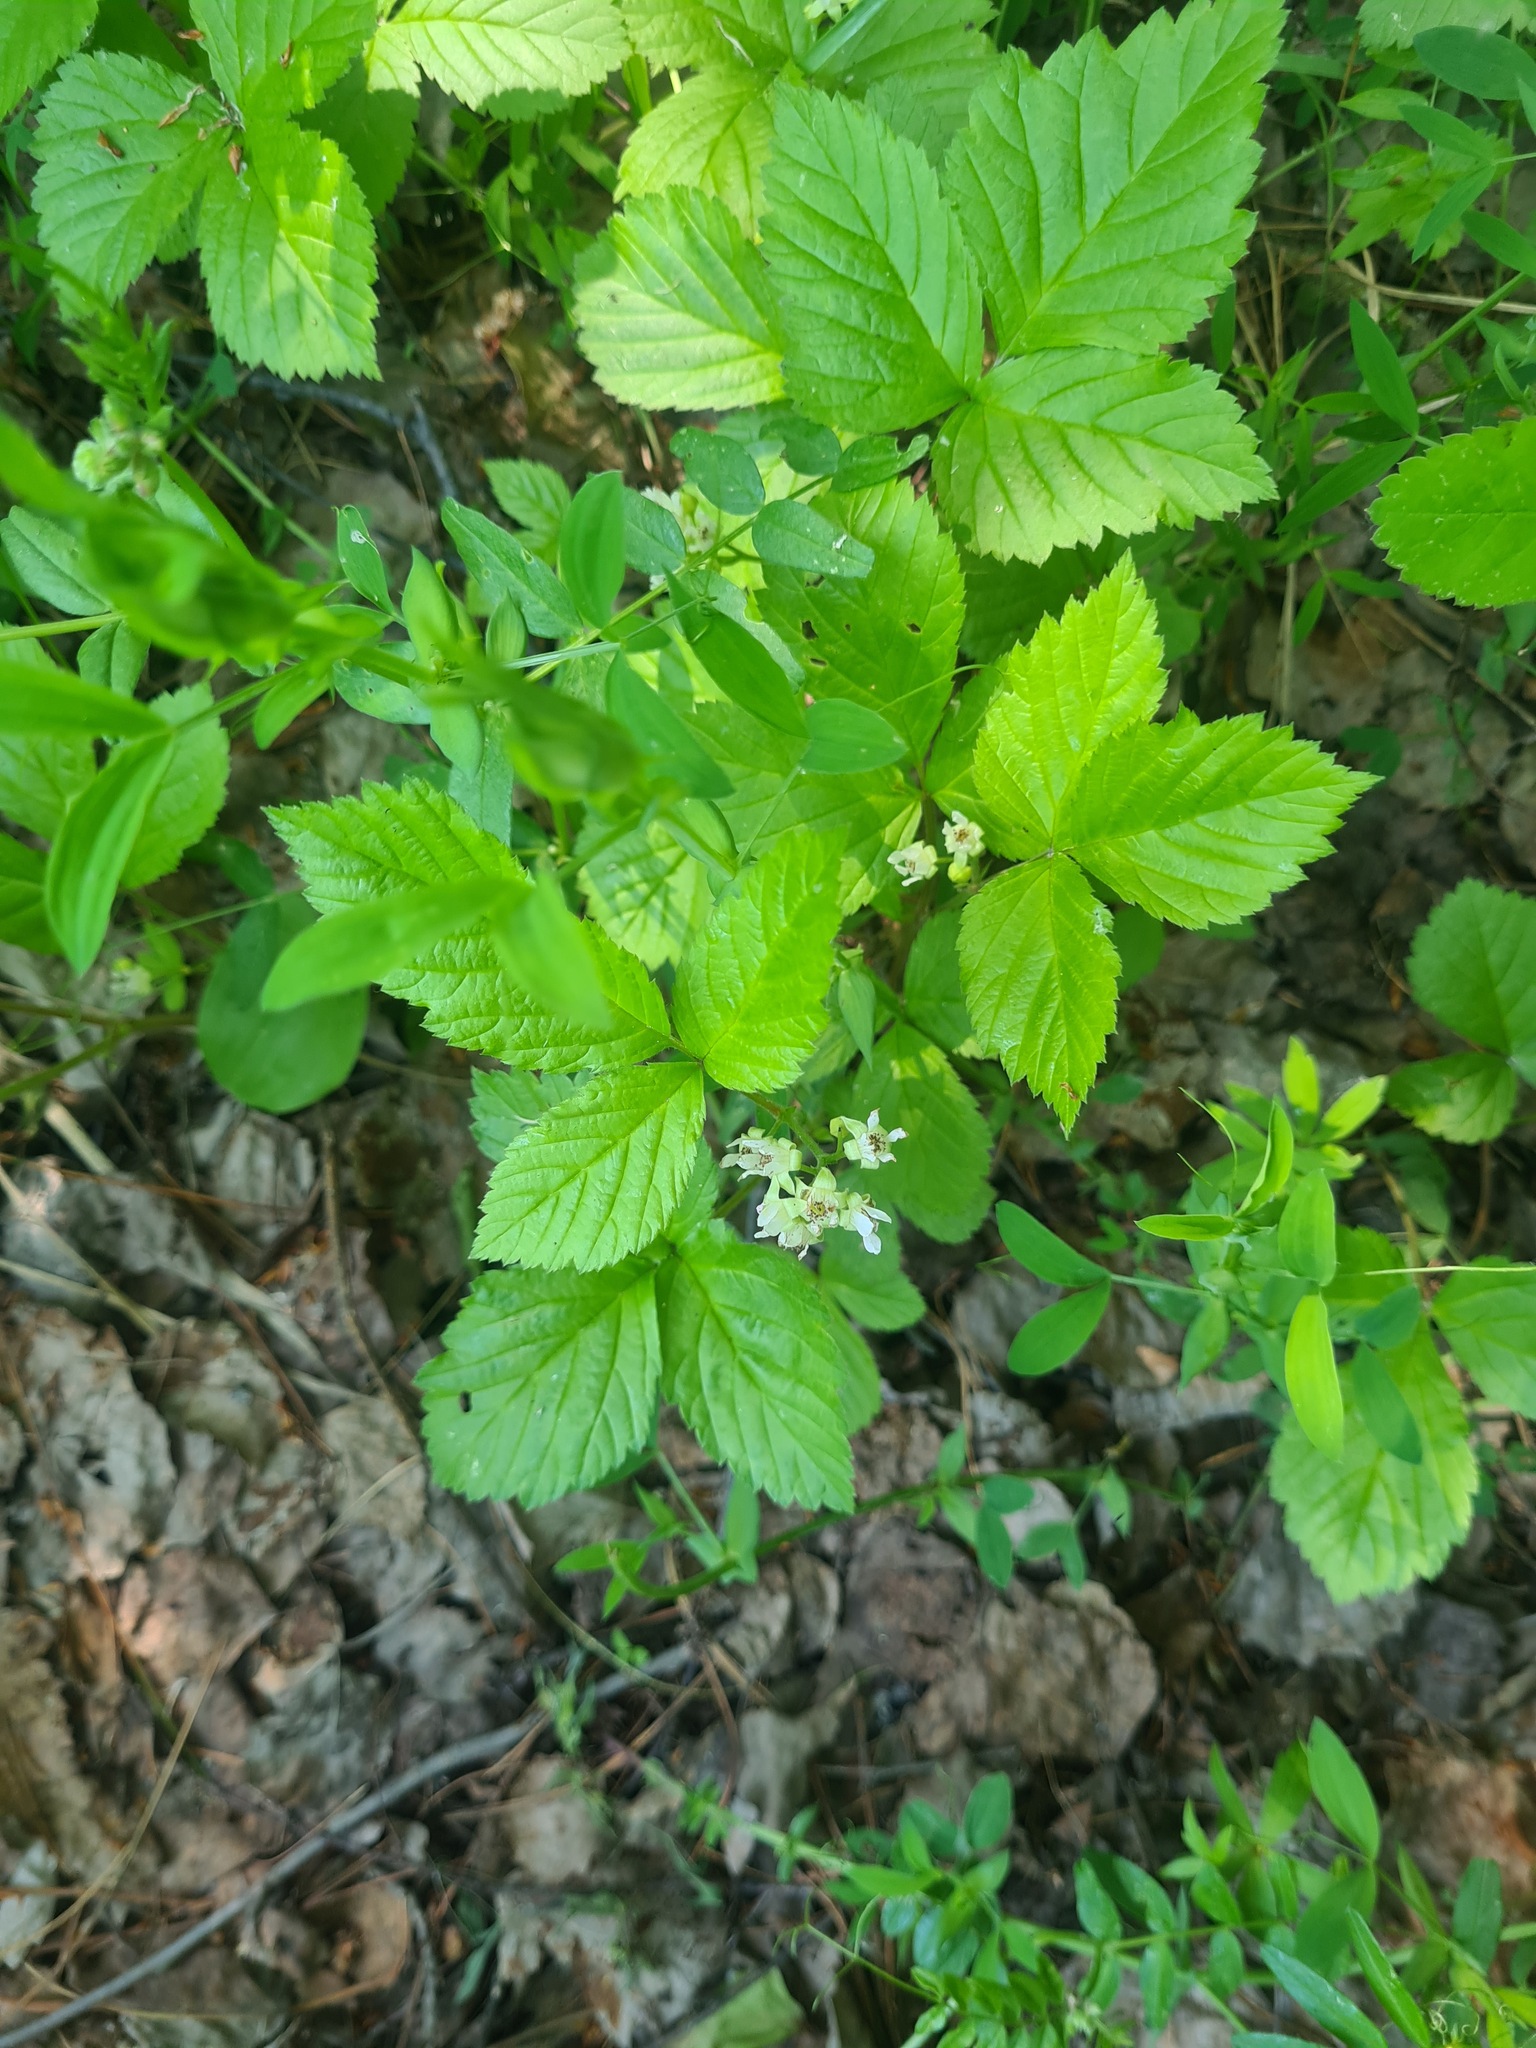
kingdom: Plantae
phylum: Tracheophyta
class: Magnoliopsida
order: Rosales
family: Rosaceae
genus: Rubus
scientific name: Rubus saxatilis
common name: Stone bramble
